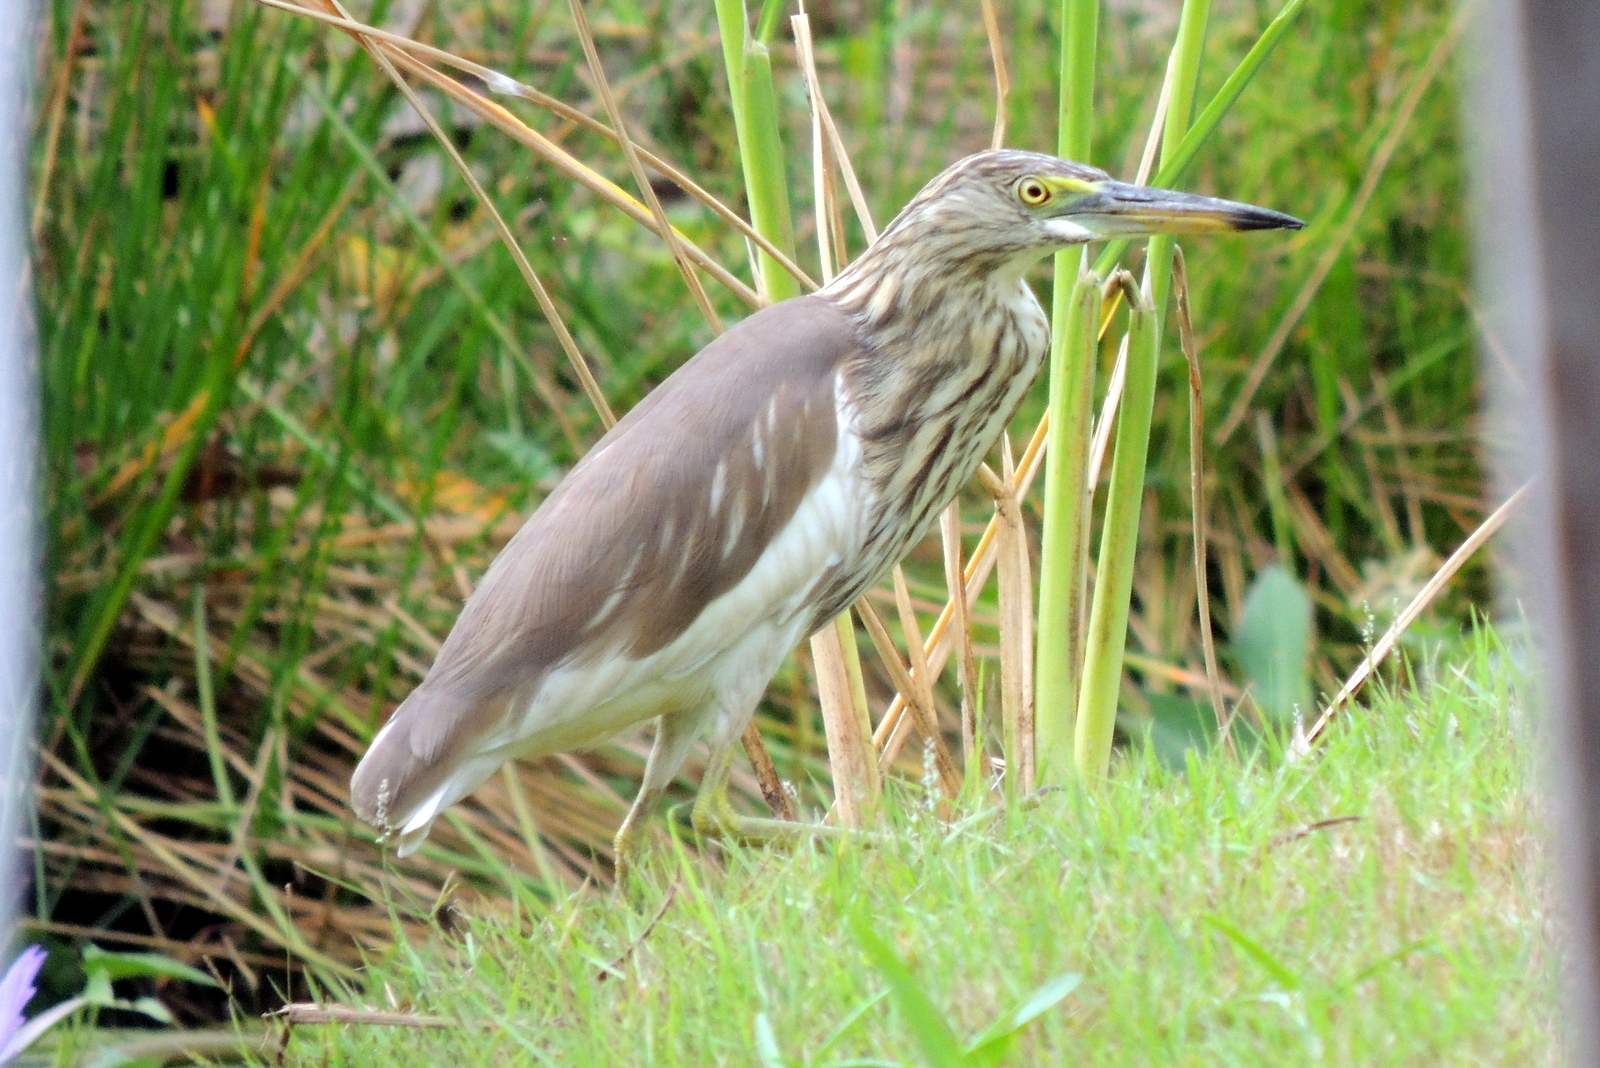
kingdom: Animalia
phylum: Chordata
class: Aves
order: Pelecaniformes
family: Ardeidae
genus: Ardeola
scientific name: Ardeola
